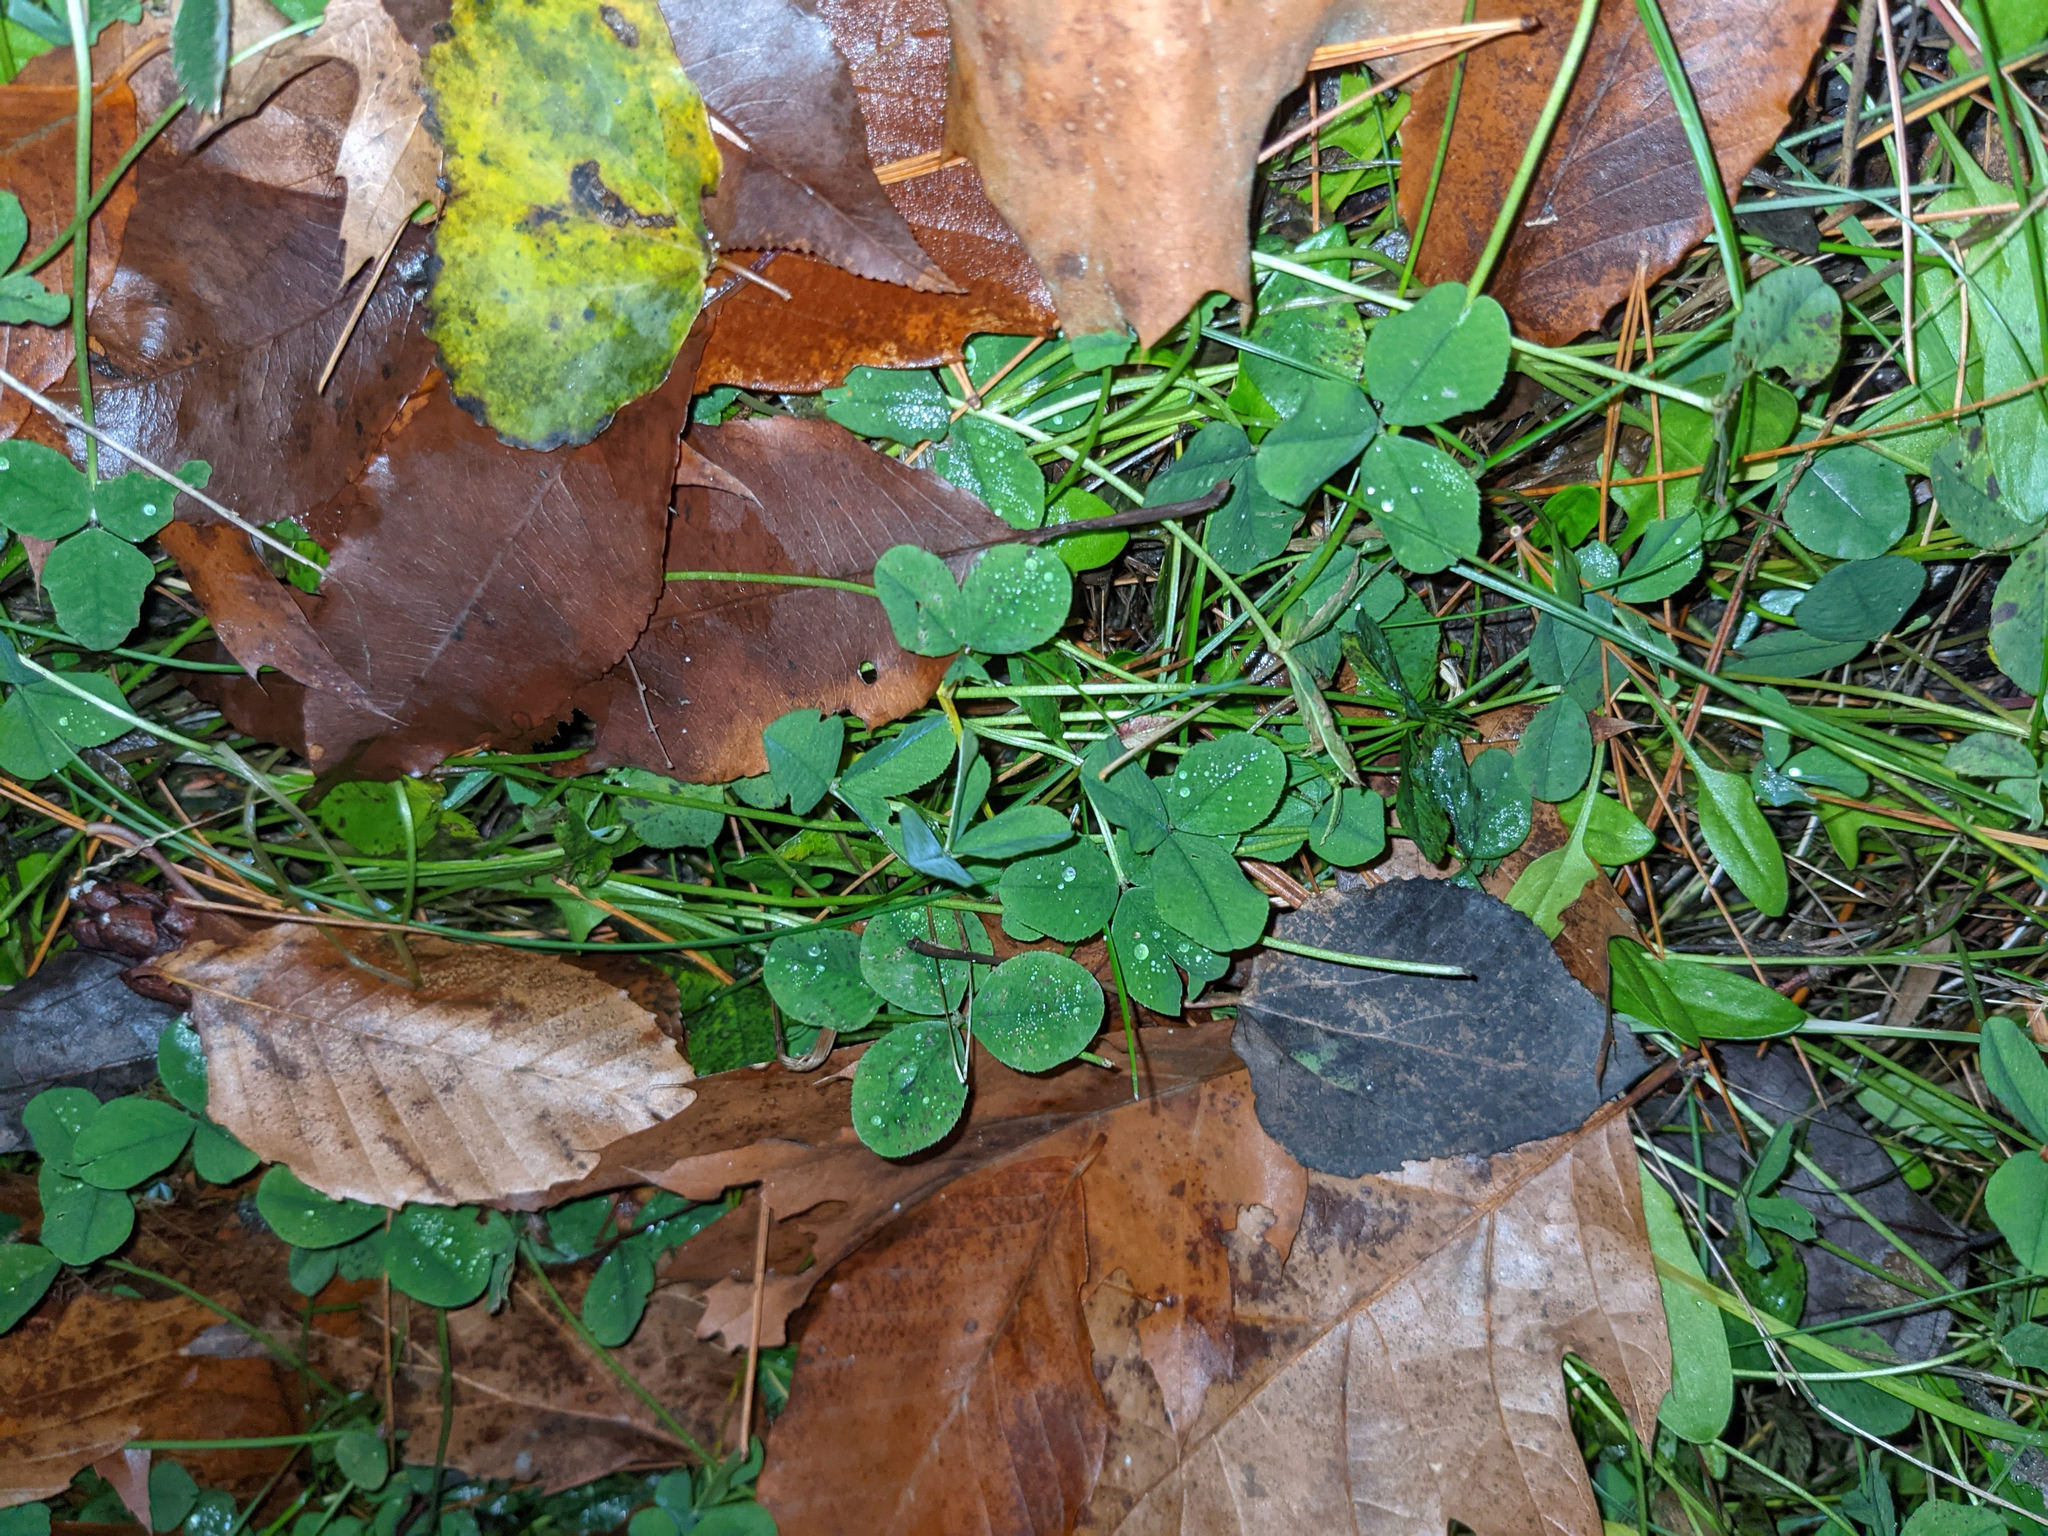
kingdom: Plantae
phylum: Tracheophyta
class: Magnoliopsida
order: Fabales
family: Fabaceae
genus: Trifolium
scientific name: Trifolium repens
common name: White clover
